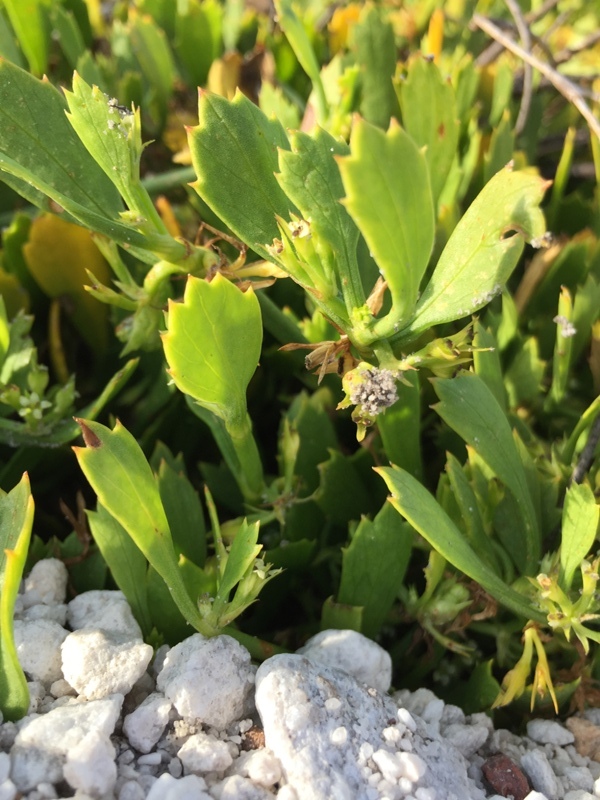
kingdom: Plantae
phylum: Tracheophyta
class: Magnoliopsida
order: Apiales
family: Apiaceae
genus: Centella
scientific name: Centella triloba
